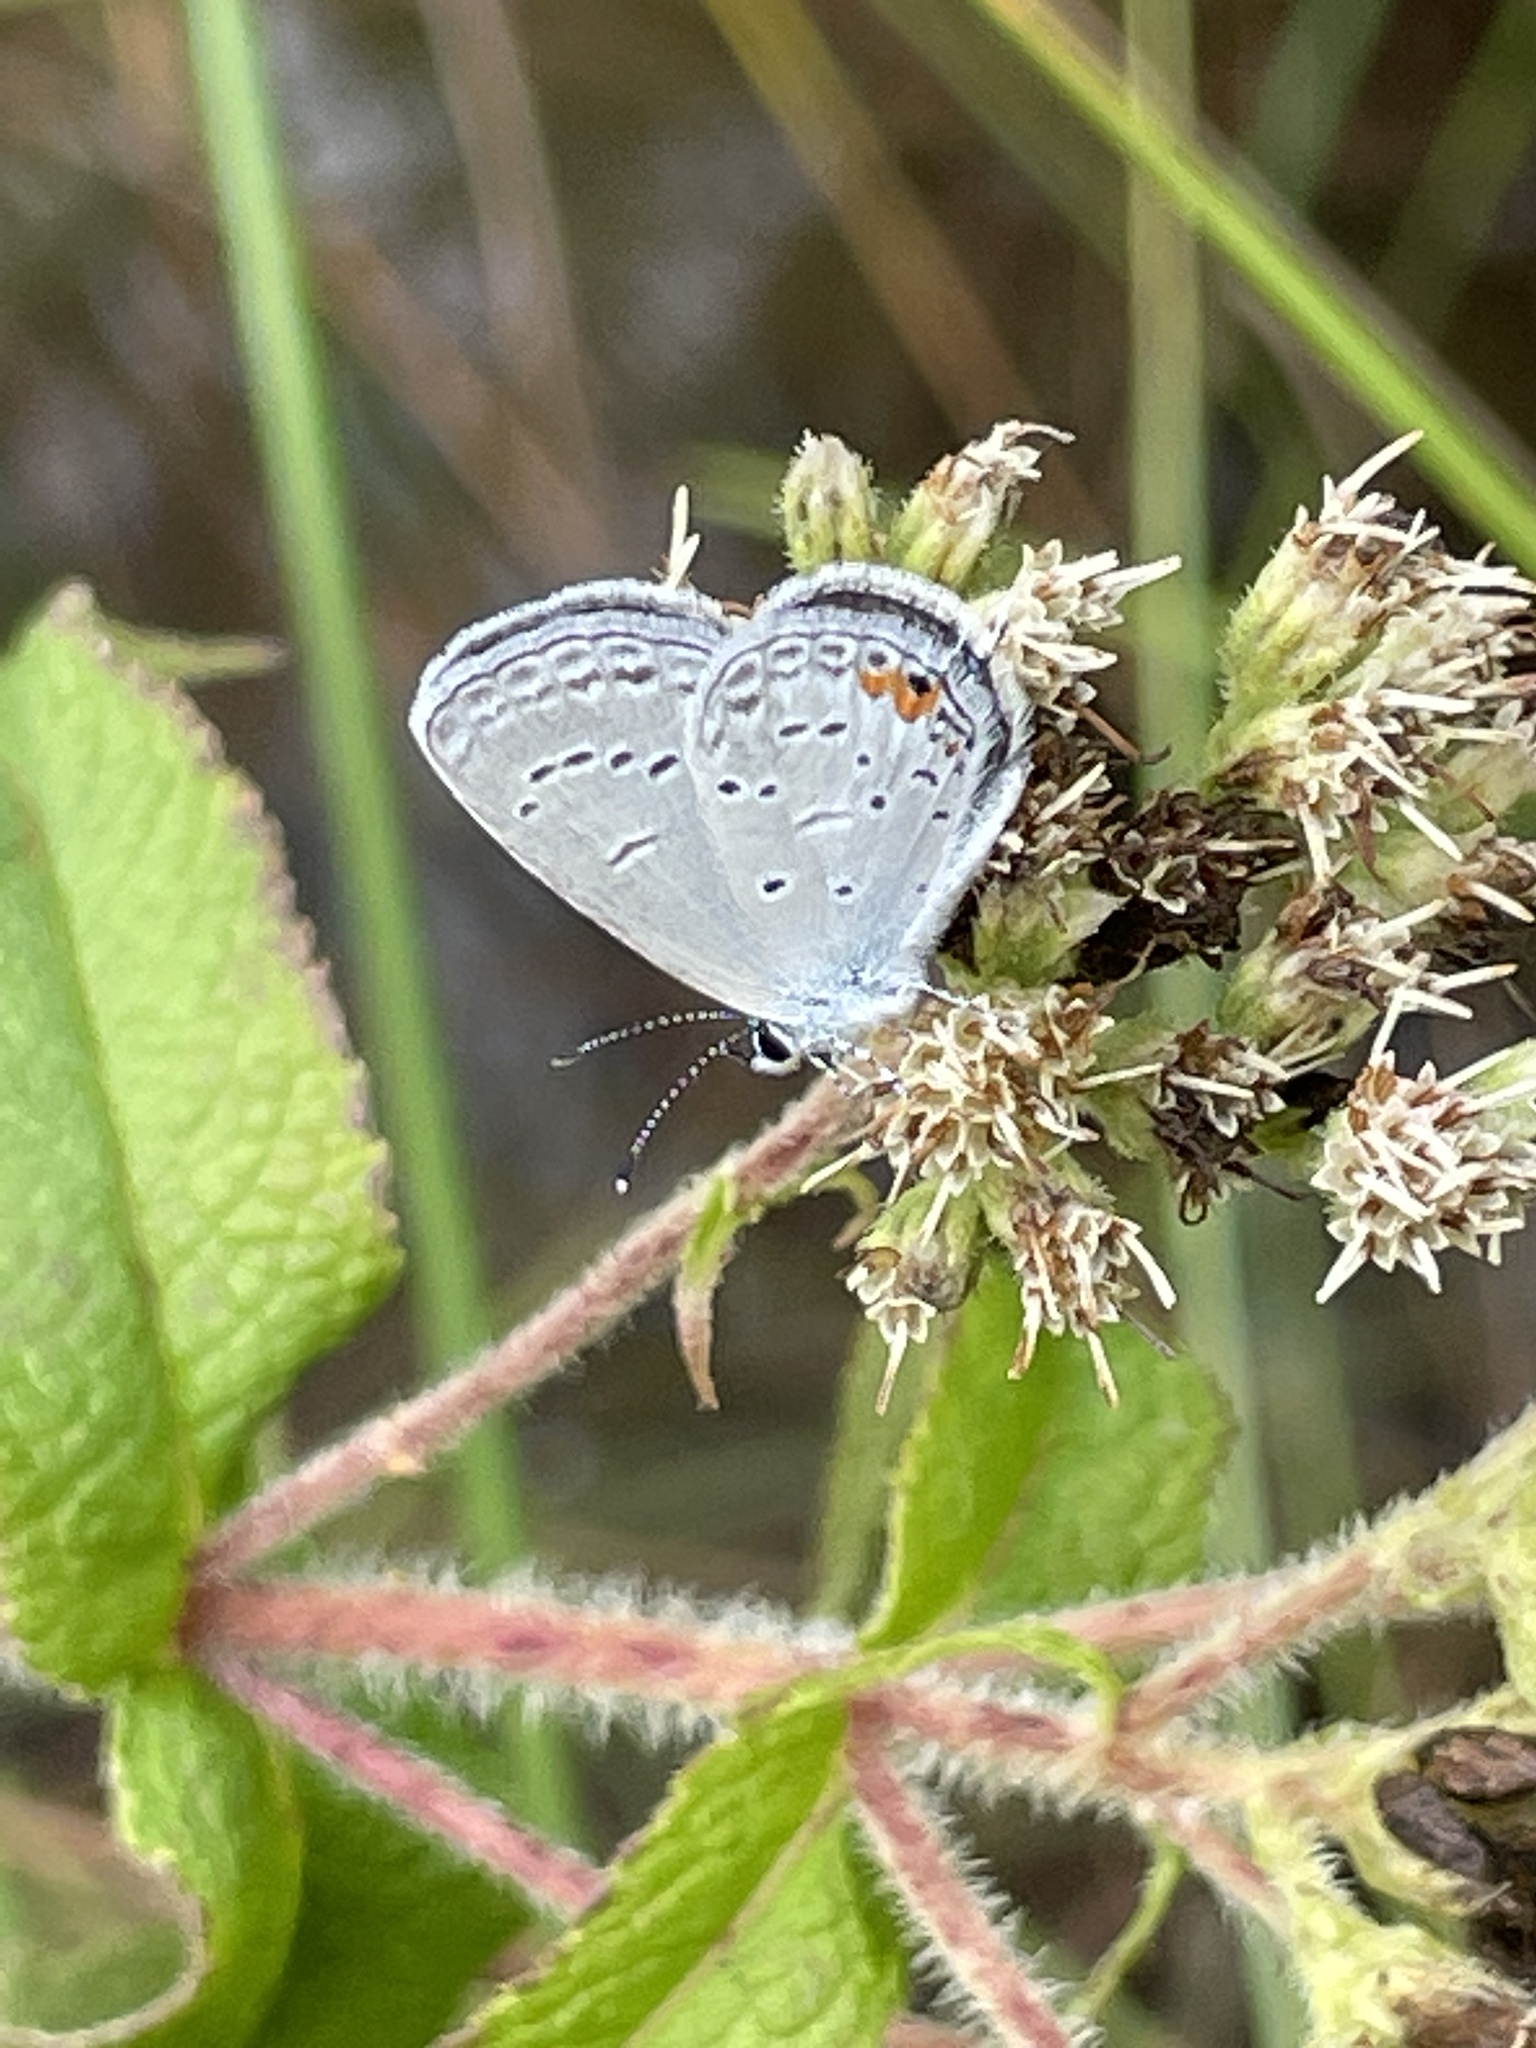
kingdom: Animalia
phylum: Arthropoda
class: Insecta
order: Lepidoptera
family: Lycaenidae
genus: Elkalyce
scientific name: Elkalyce comyntas
